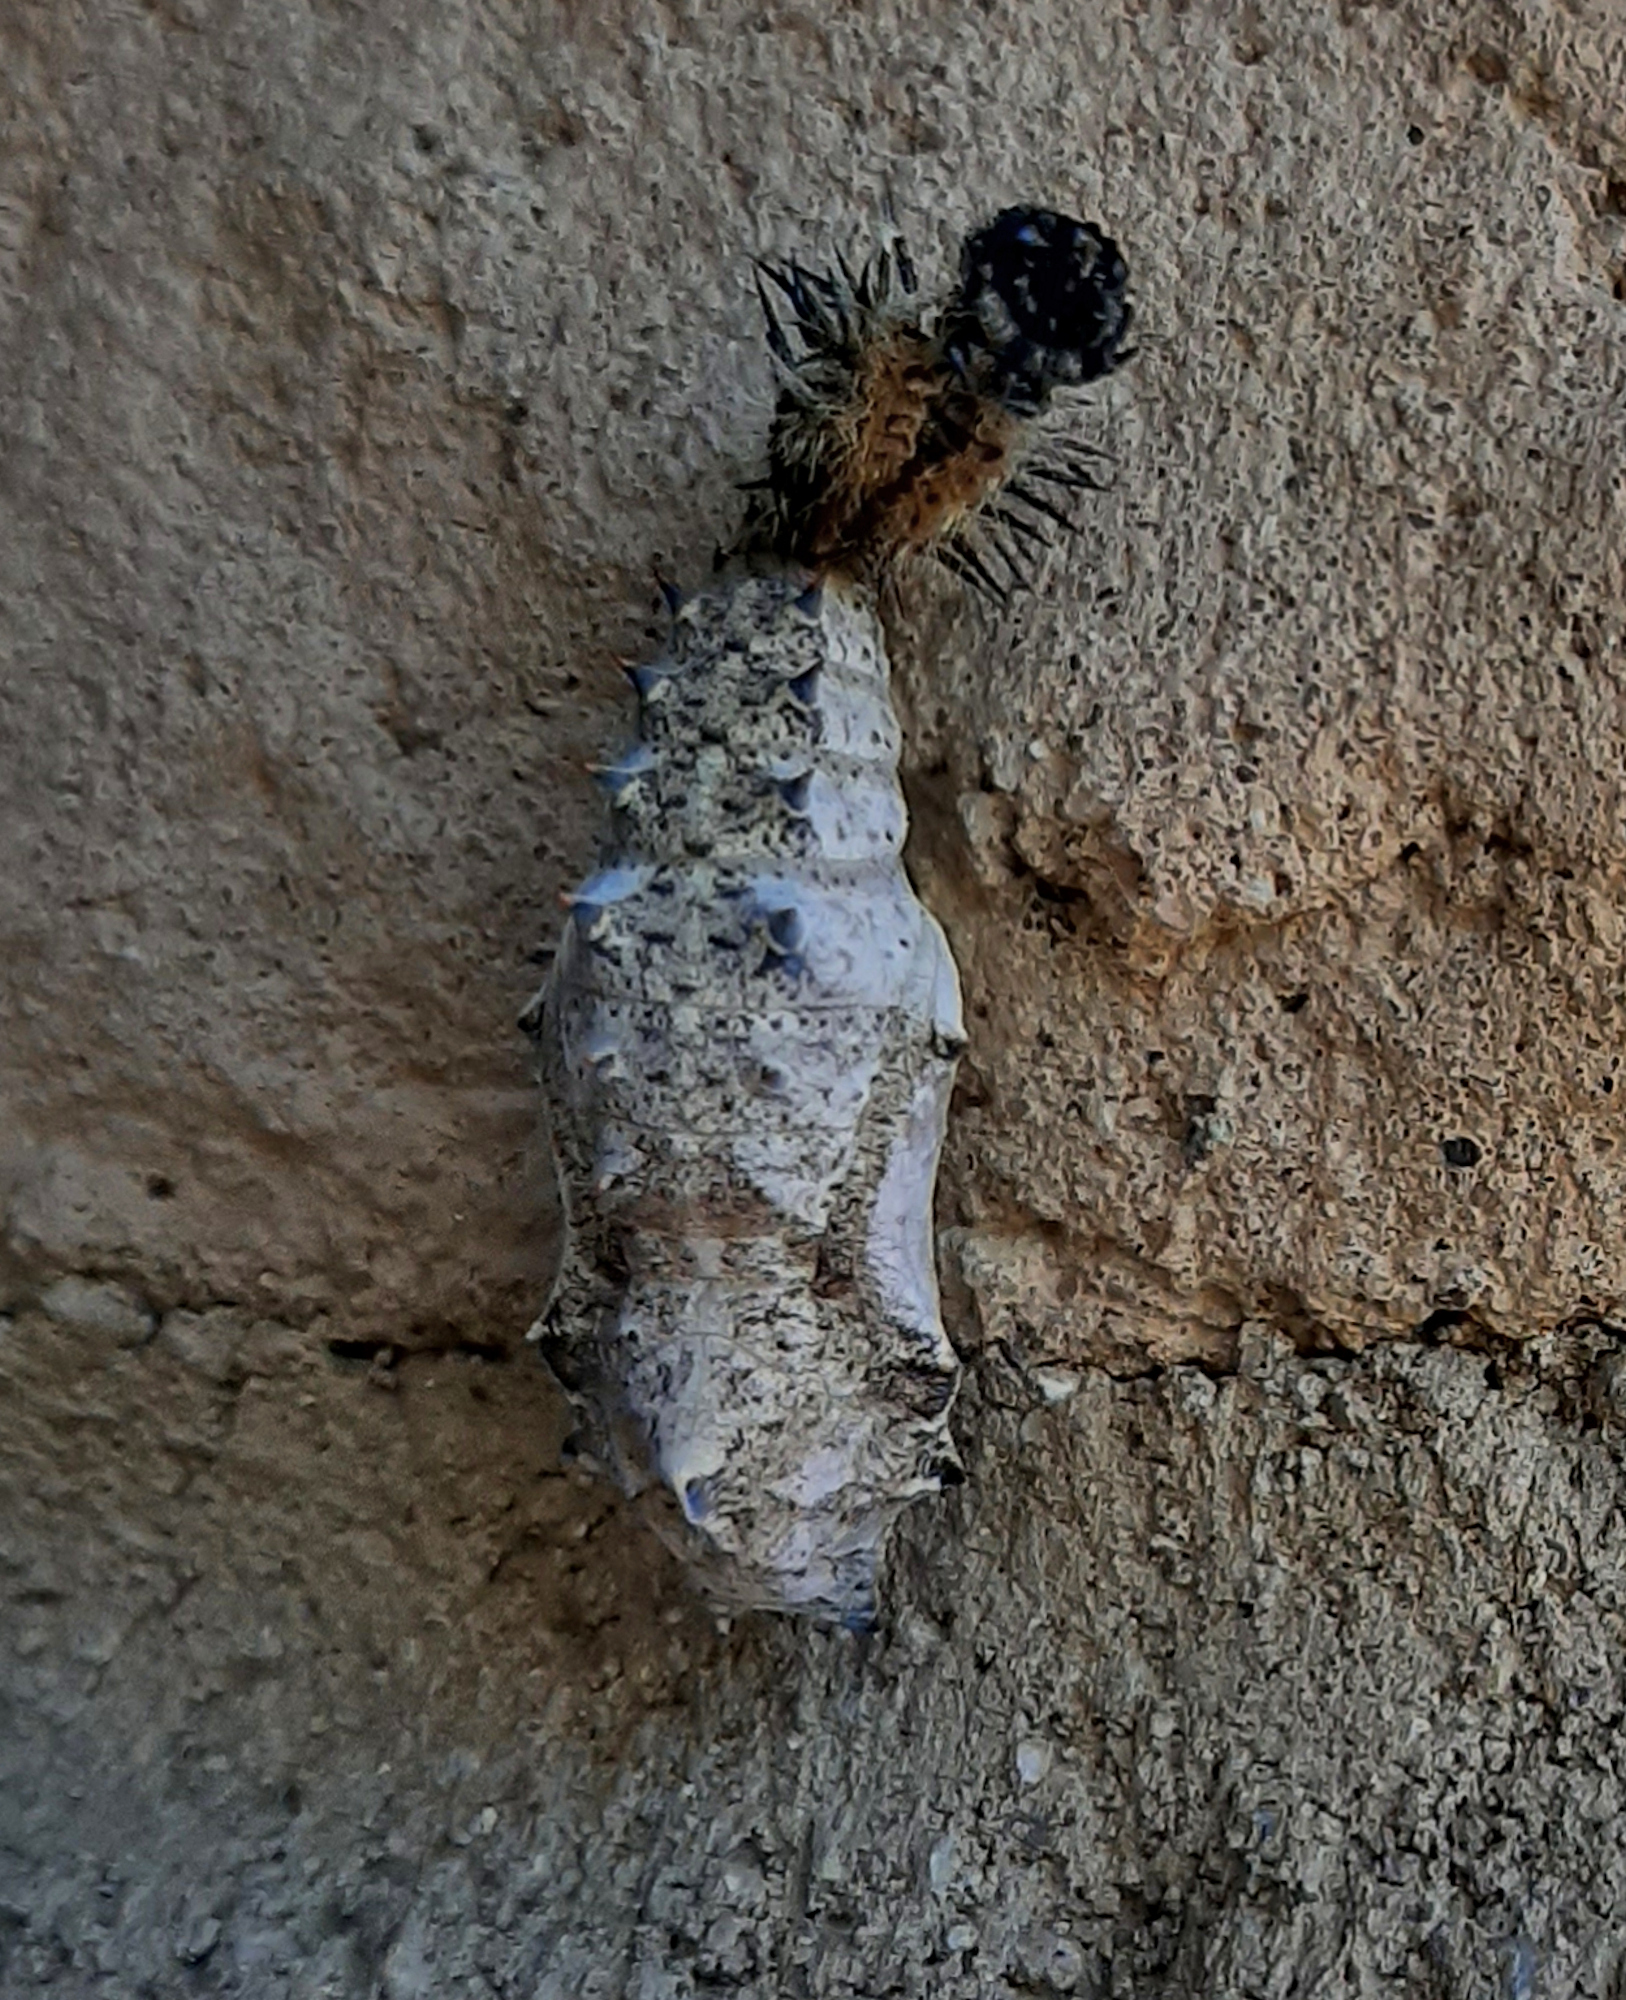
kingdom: Animalia
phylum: Arthropoda
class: Insecta
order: Lepidoptera
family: Nymphalidae
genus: Nymphalis
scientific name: Nymphalis antiopa
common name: Camberwell beauty
